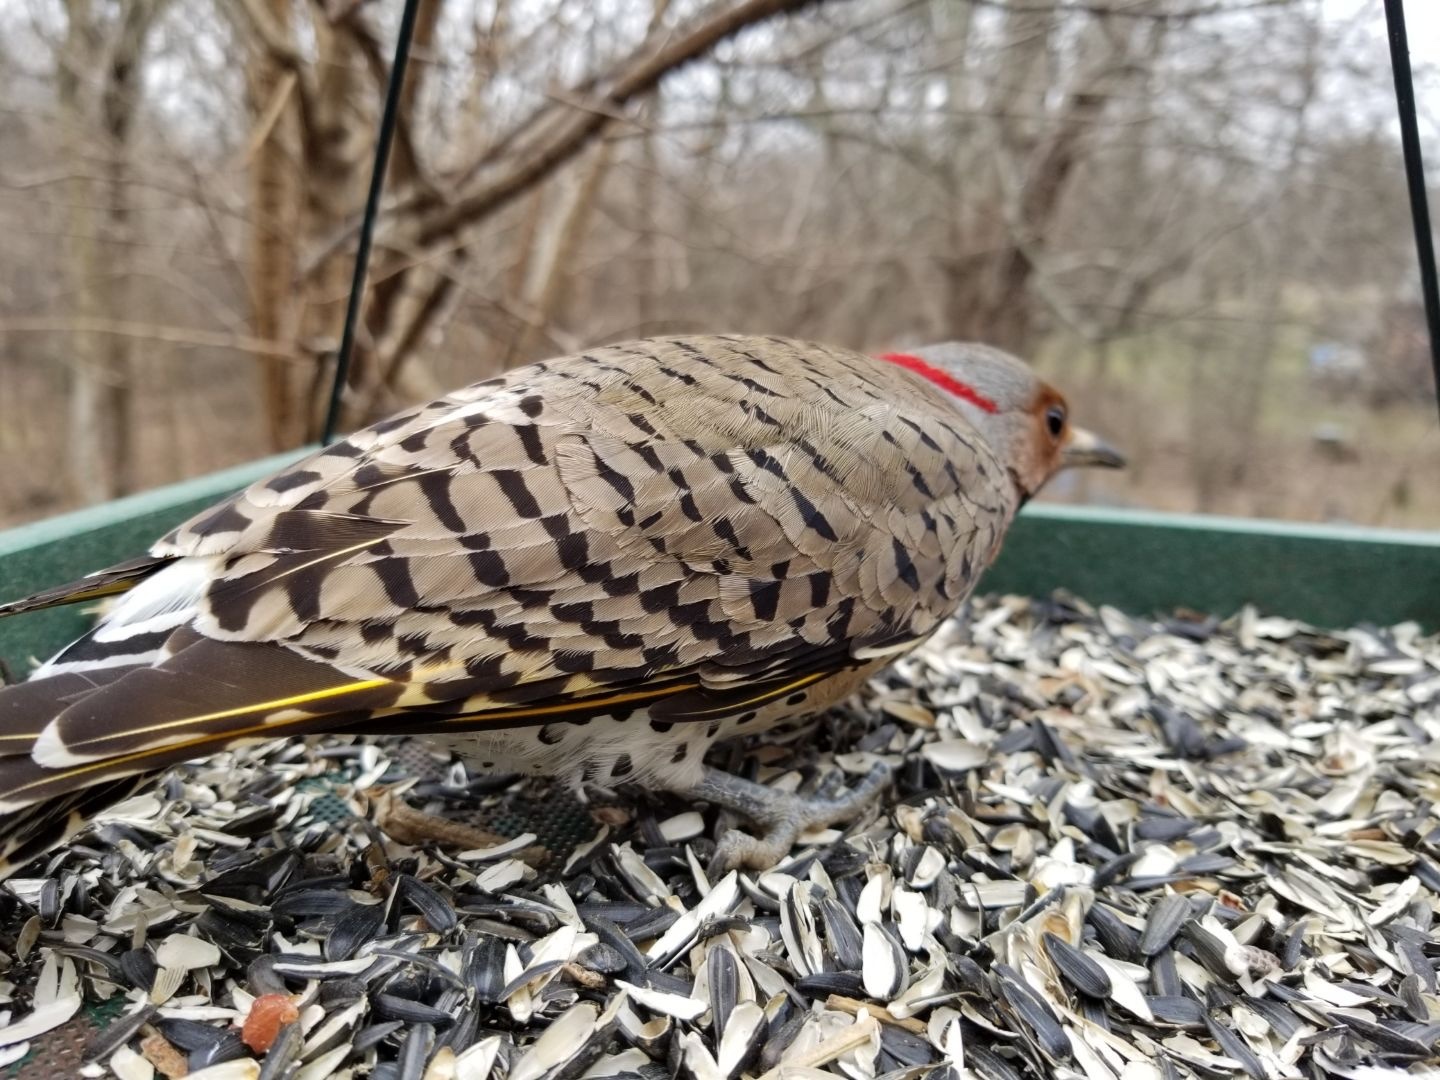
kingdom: Animalia
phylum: Chordata
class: Aves
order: Piciformes
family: Picidae
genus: Colaptes
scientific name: Colaptes auratus
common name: Northern flicker
